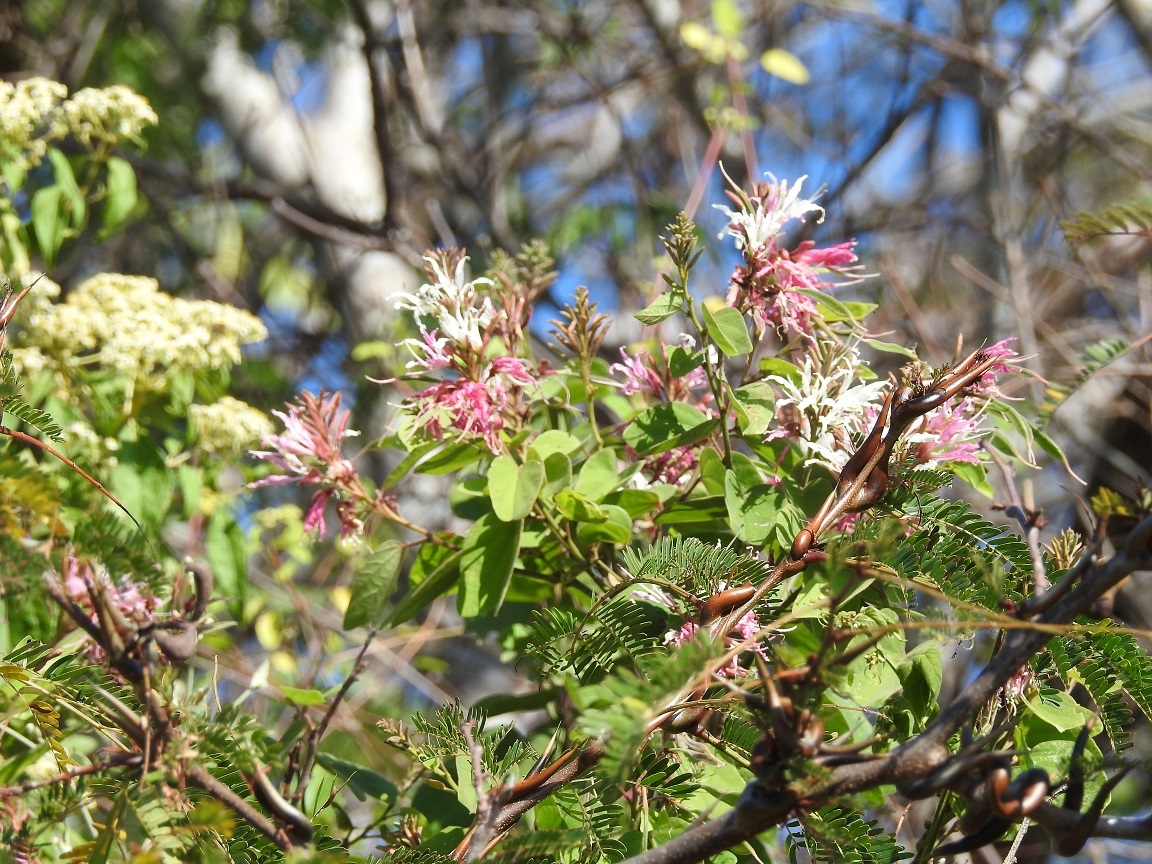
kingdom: Plantae
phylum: Tracheophyta
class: Magnoliopsida
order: Fabales
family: Fabaceae
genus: Bauhinia
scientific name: Bauhinia divaricata
